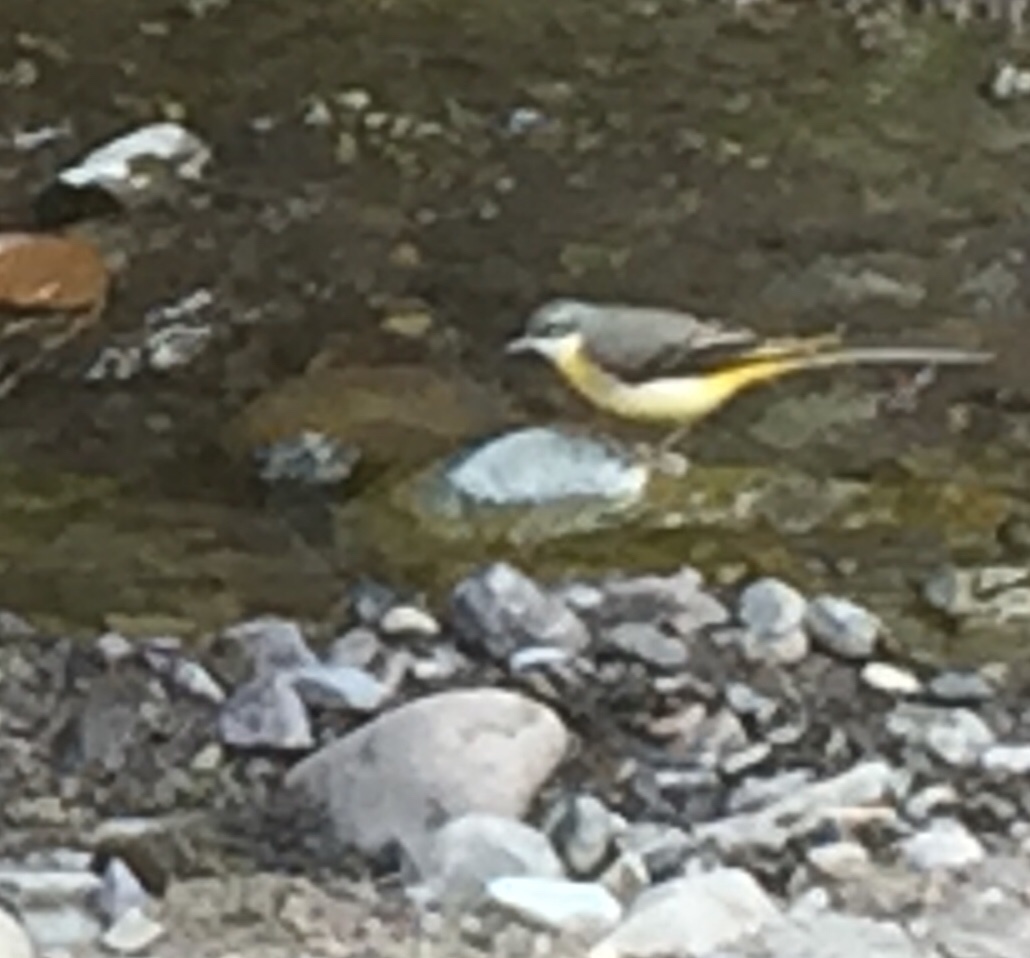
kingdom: Animalia
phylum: Chordata
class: Aves
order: Passeriformes
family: Motacillidae
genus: Motacilla
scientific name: Motacilla cinerea
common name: Grey wagtail
